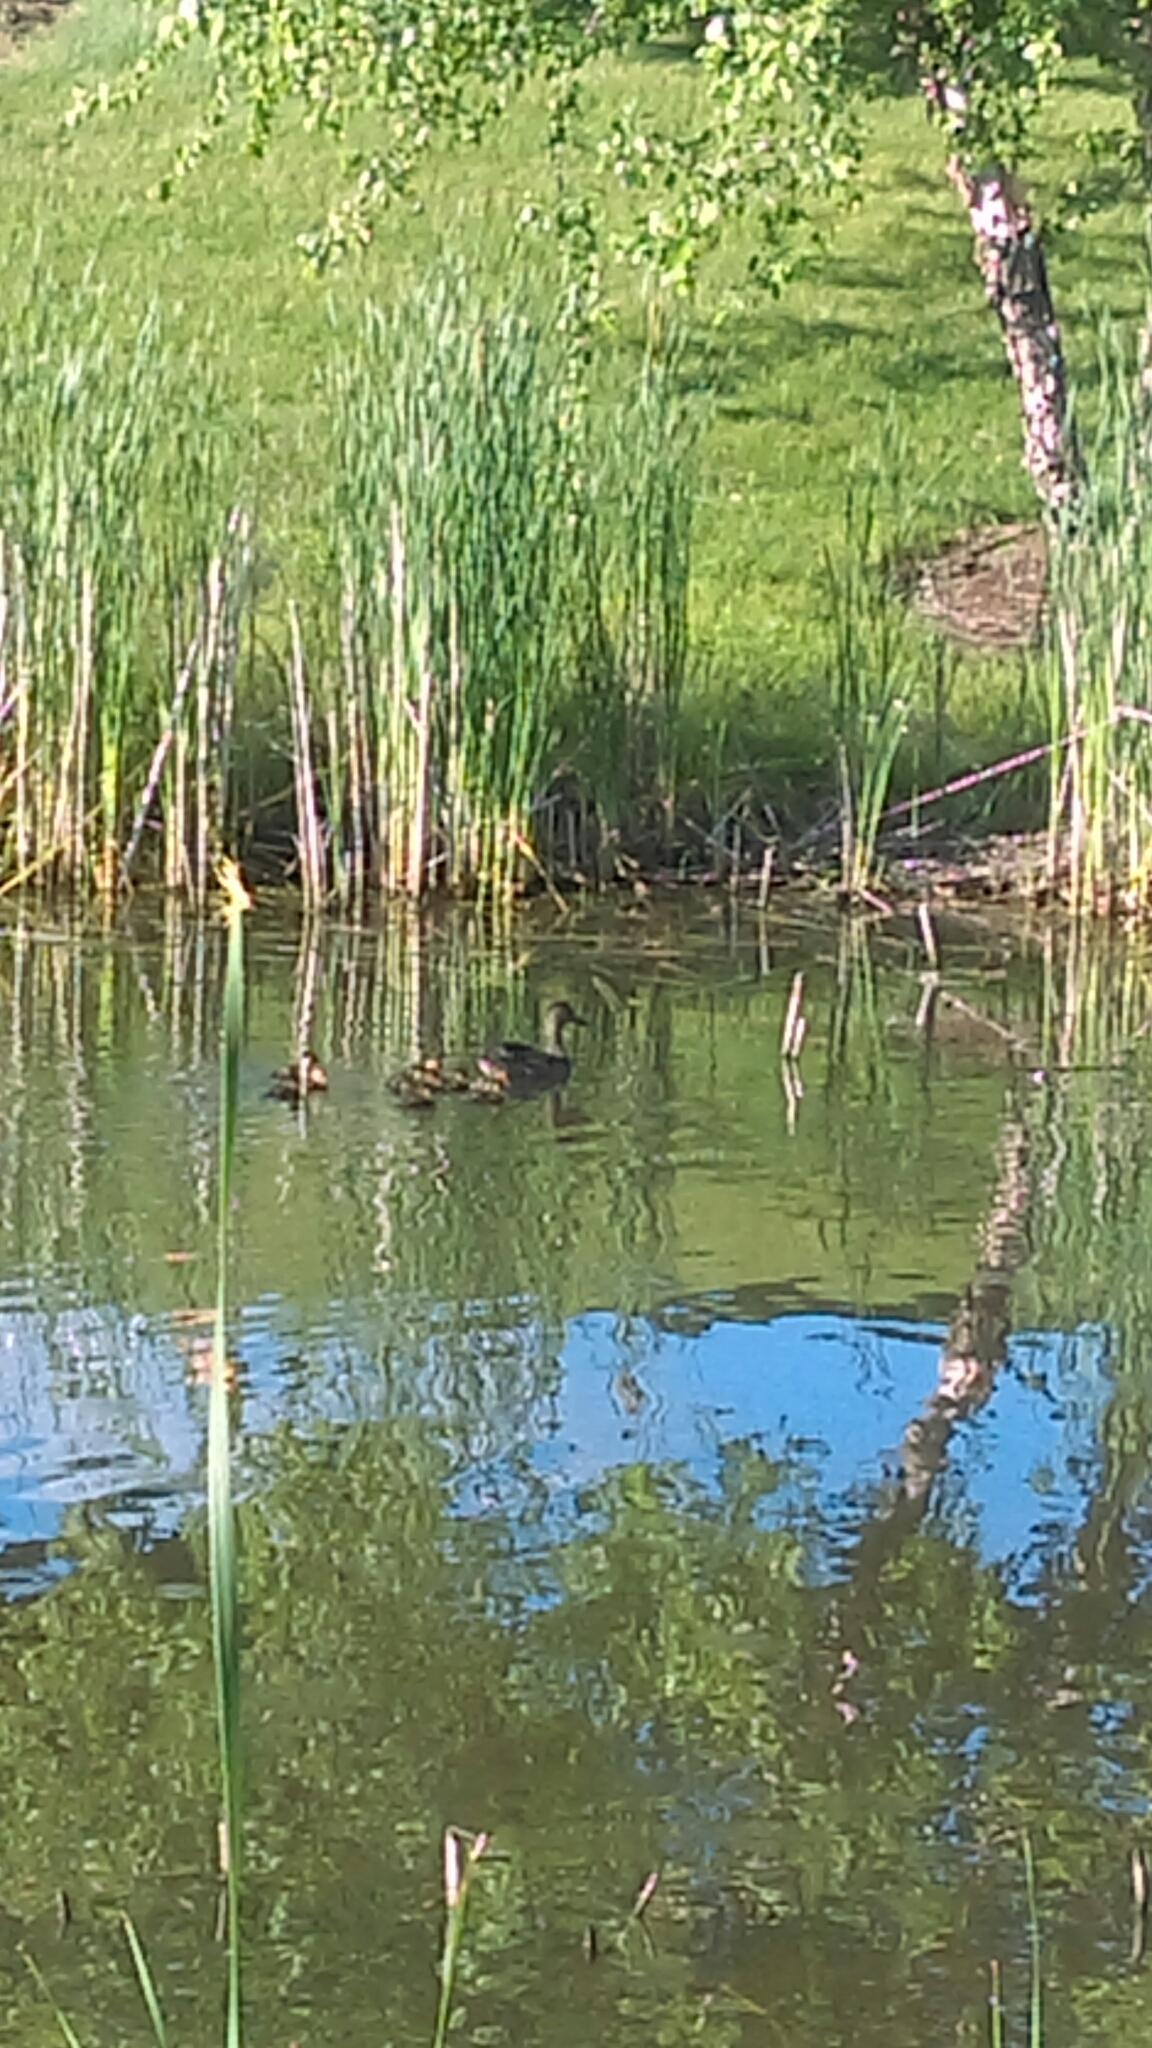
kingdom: Animalia
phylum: Chordata
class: Aves
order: Anseriformes
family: Anatidae
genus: Anas
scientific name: Anas platyrhynchos
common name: Mallard
